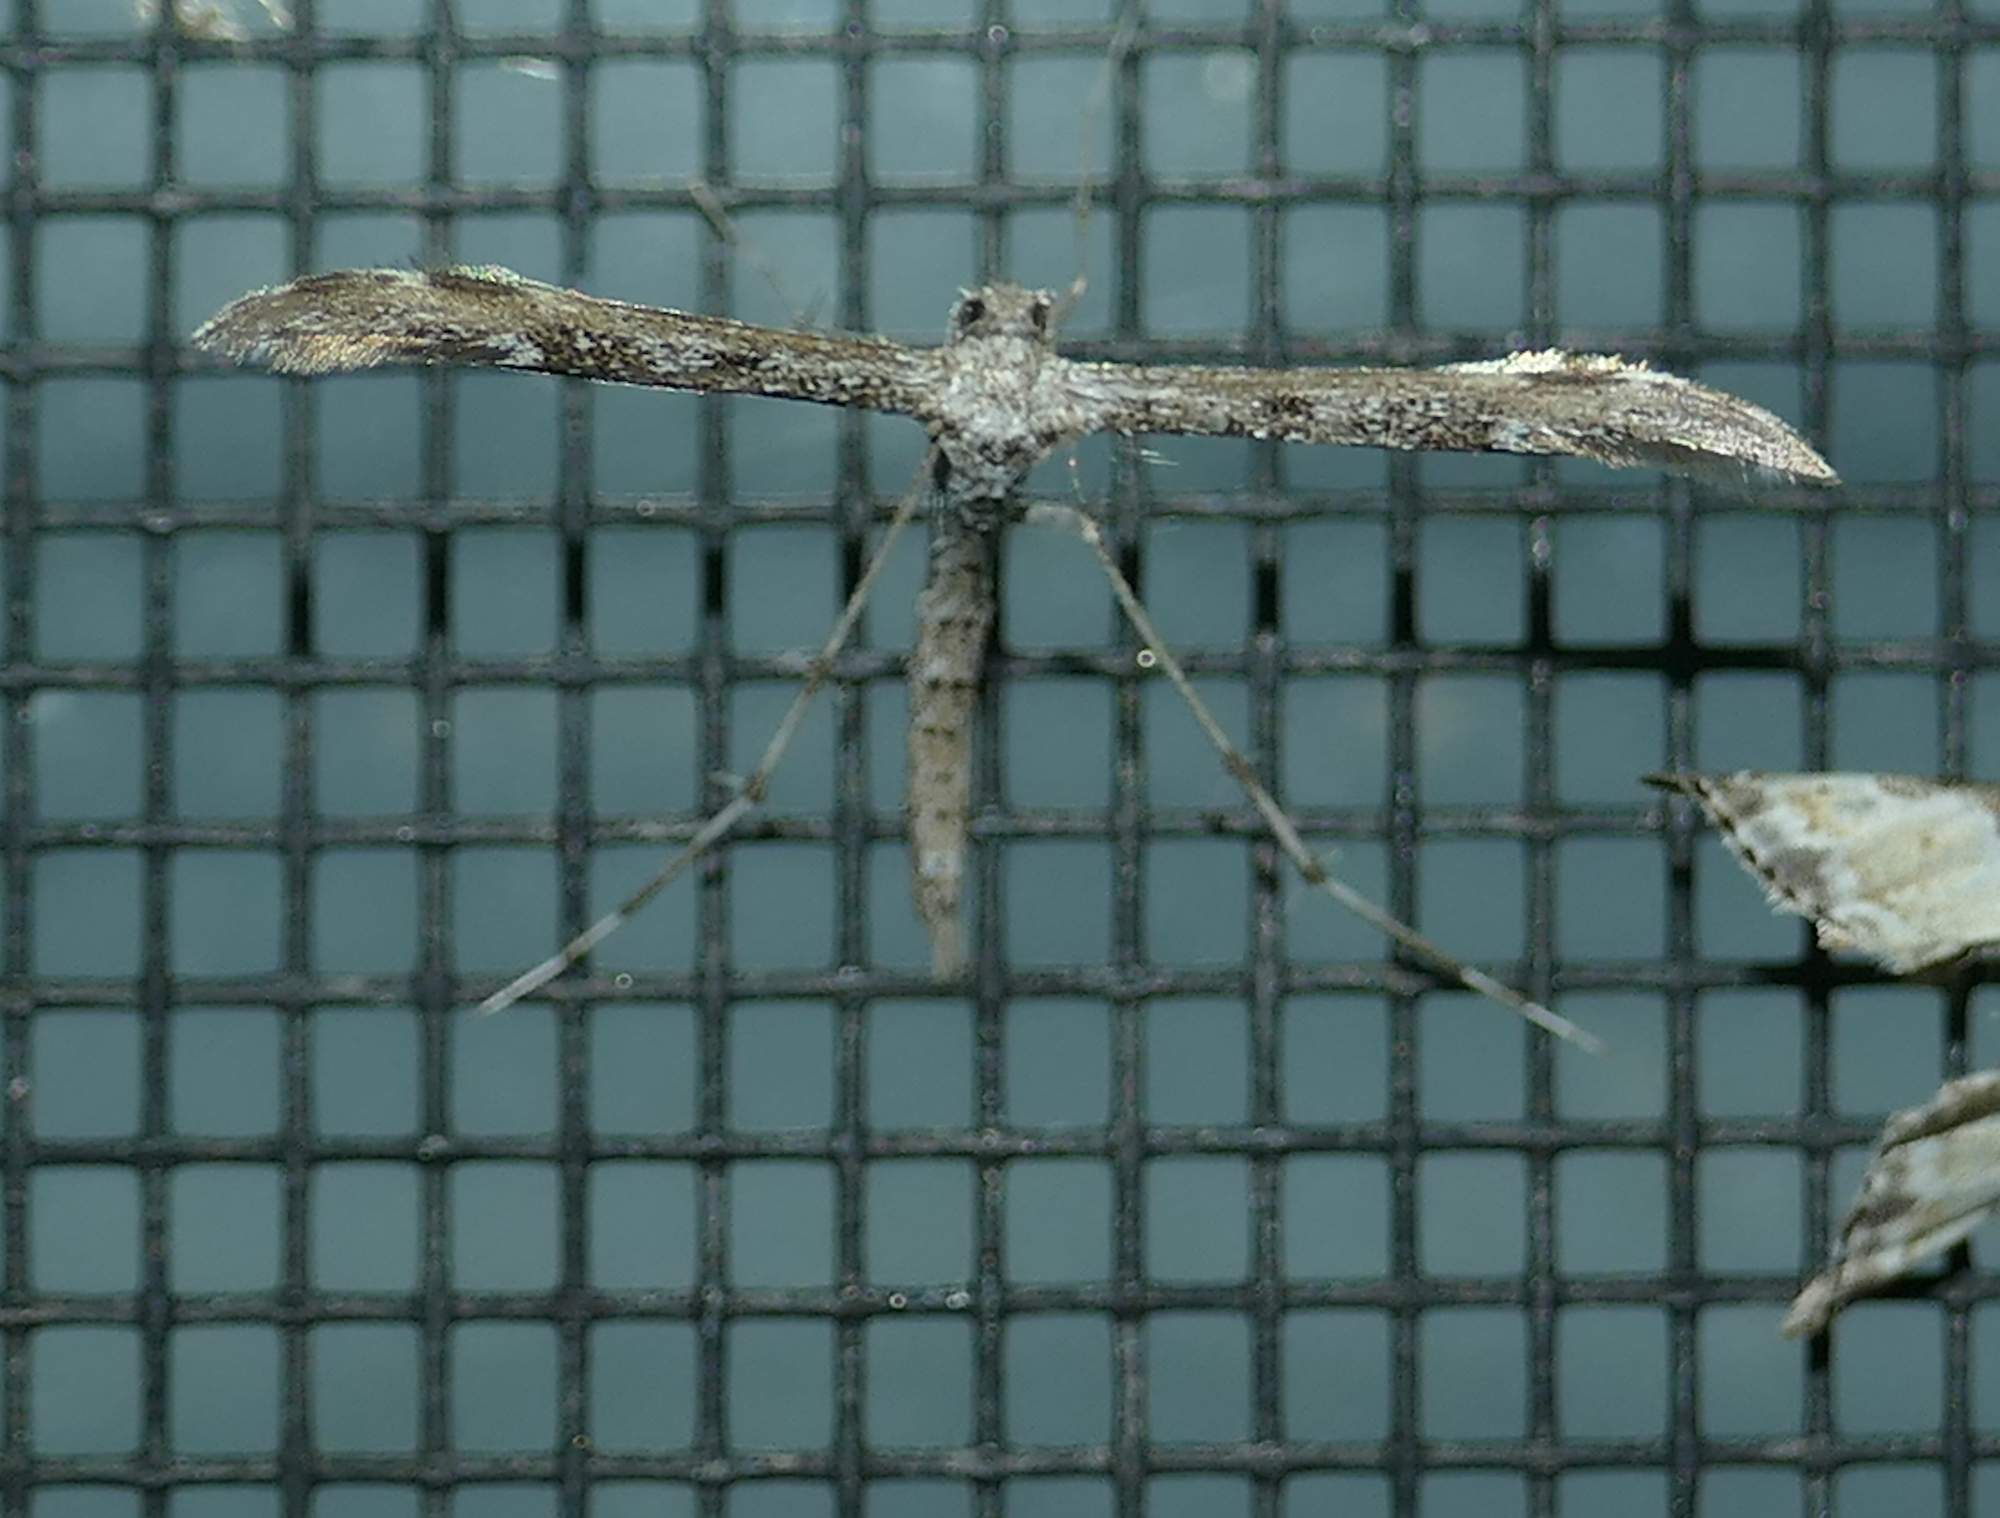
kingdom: Animalia
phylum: Arthropoda
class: Insecta
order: Lepidoptera
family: Pterophoridae
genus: Hellinsia
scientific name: Hellinsia inquinatus
